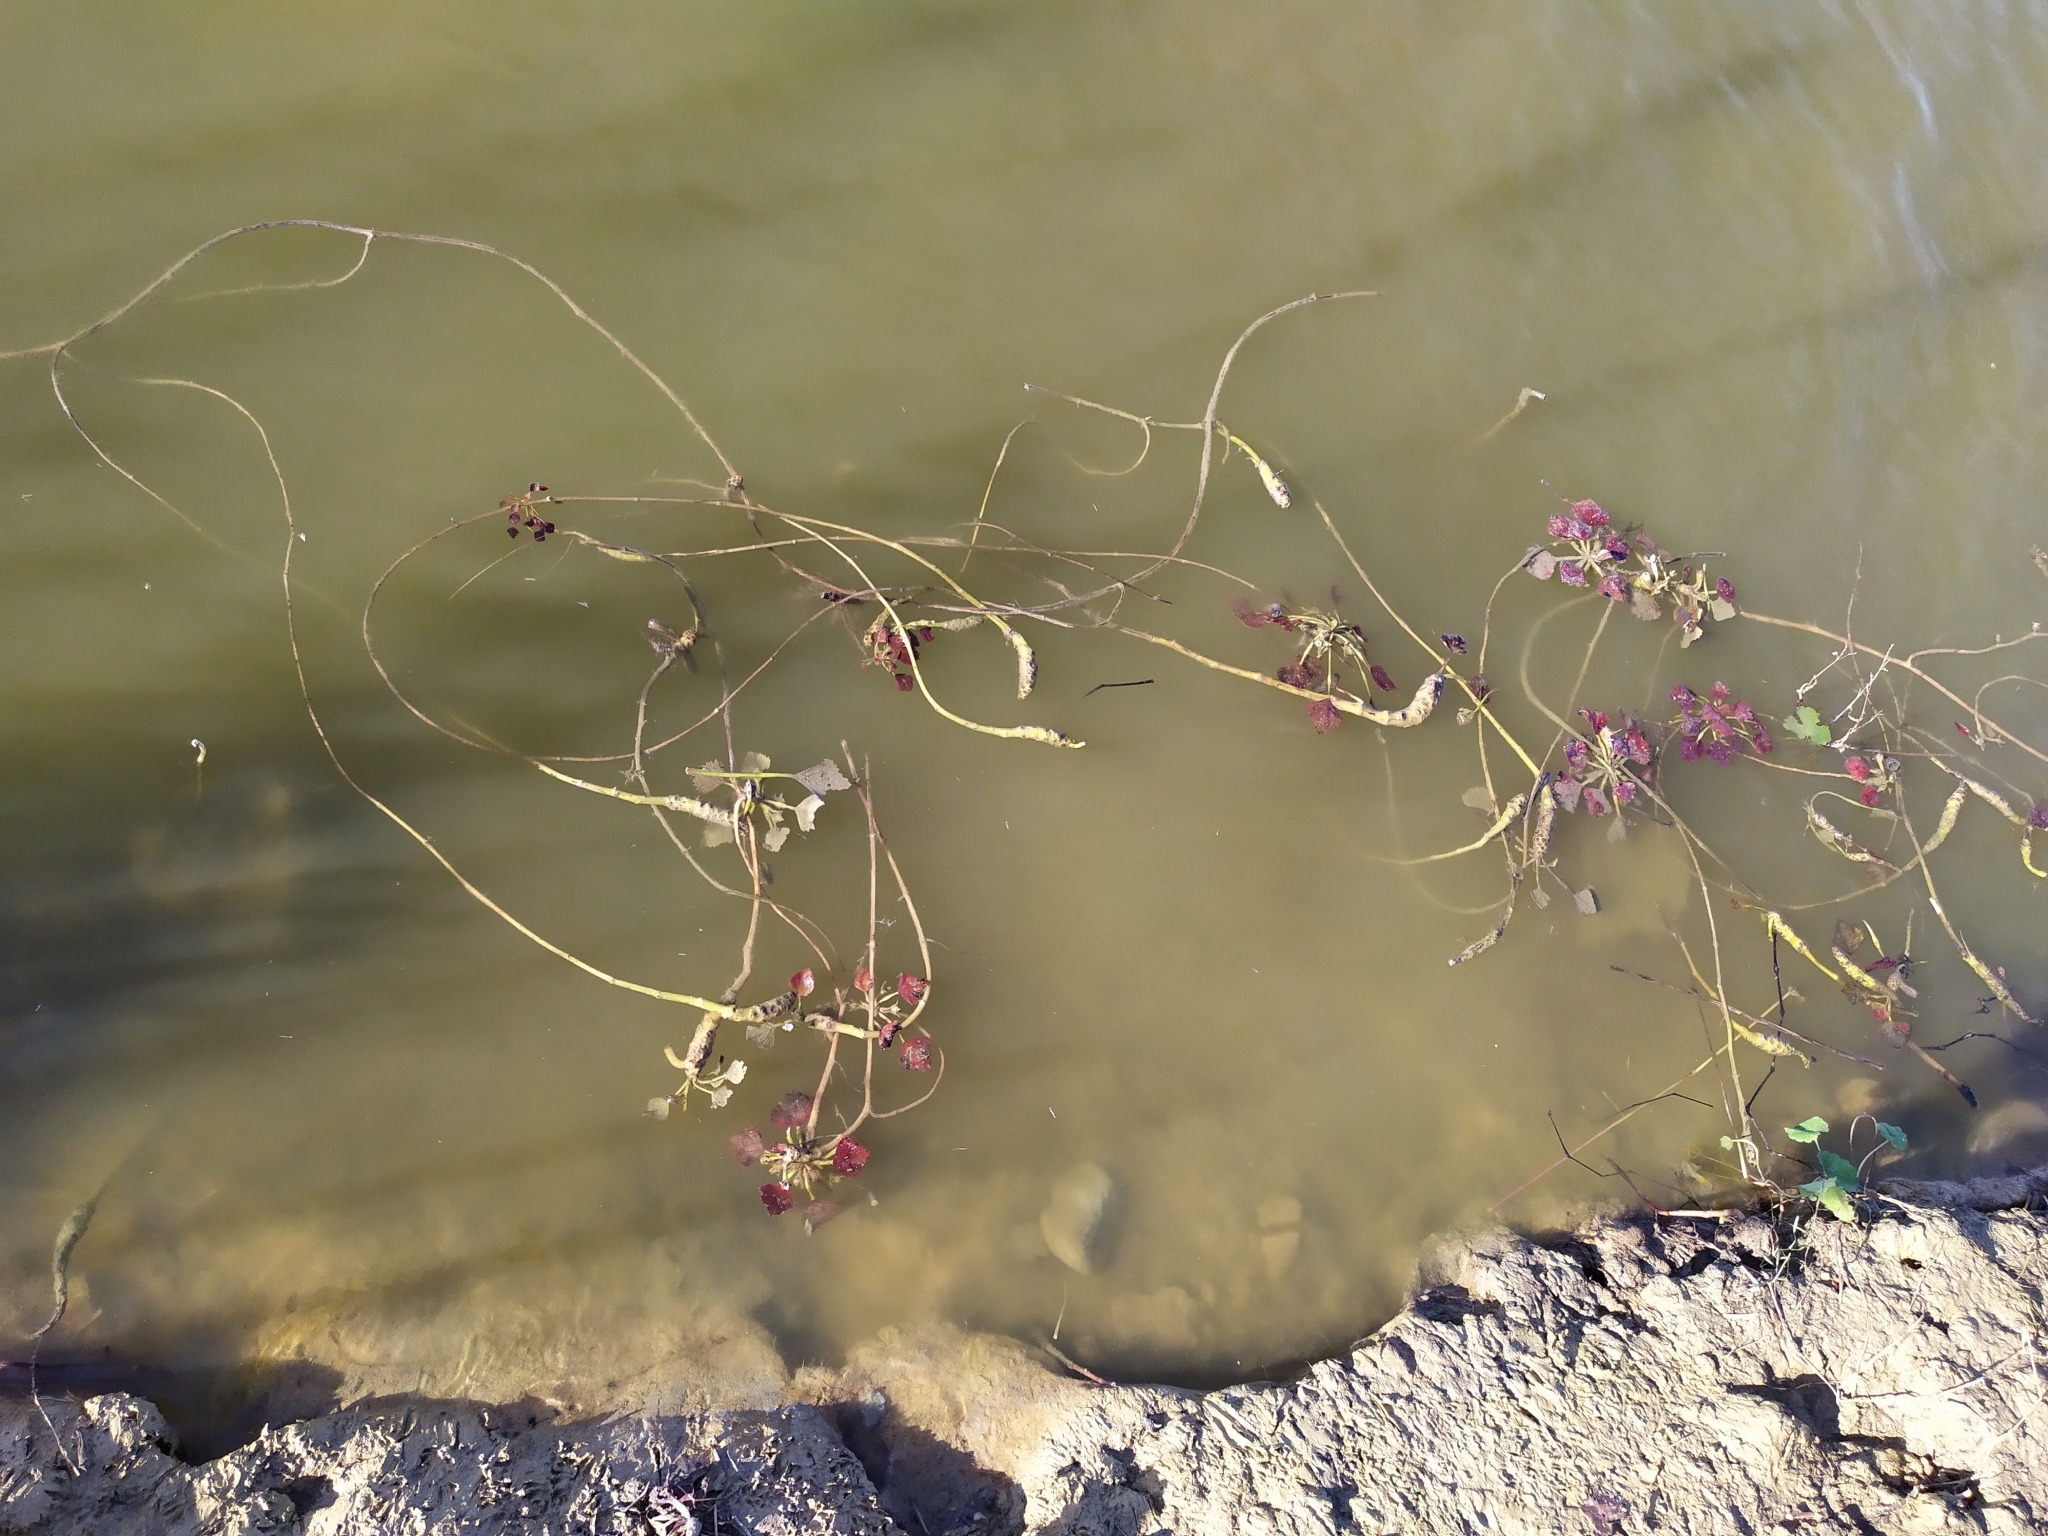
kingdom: Plantae
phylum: Tracheophyta
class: Magnoliopsida
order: Myrtales
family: Lythraceae
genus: Trapa
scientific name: Trapa natans
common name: Water chestnut
